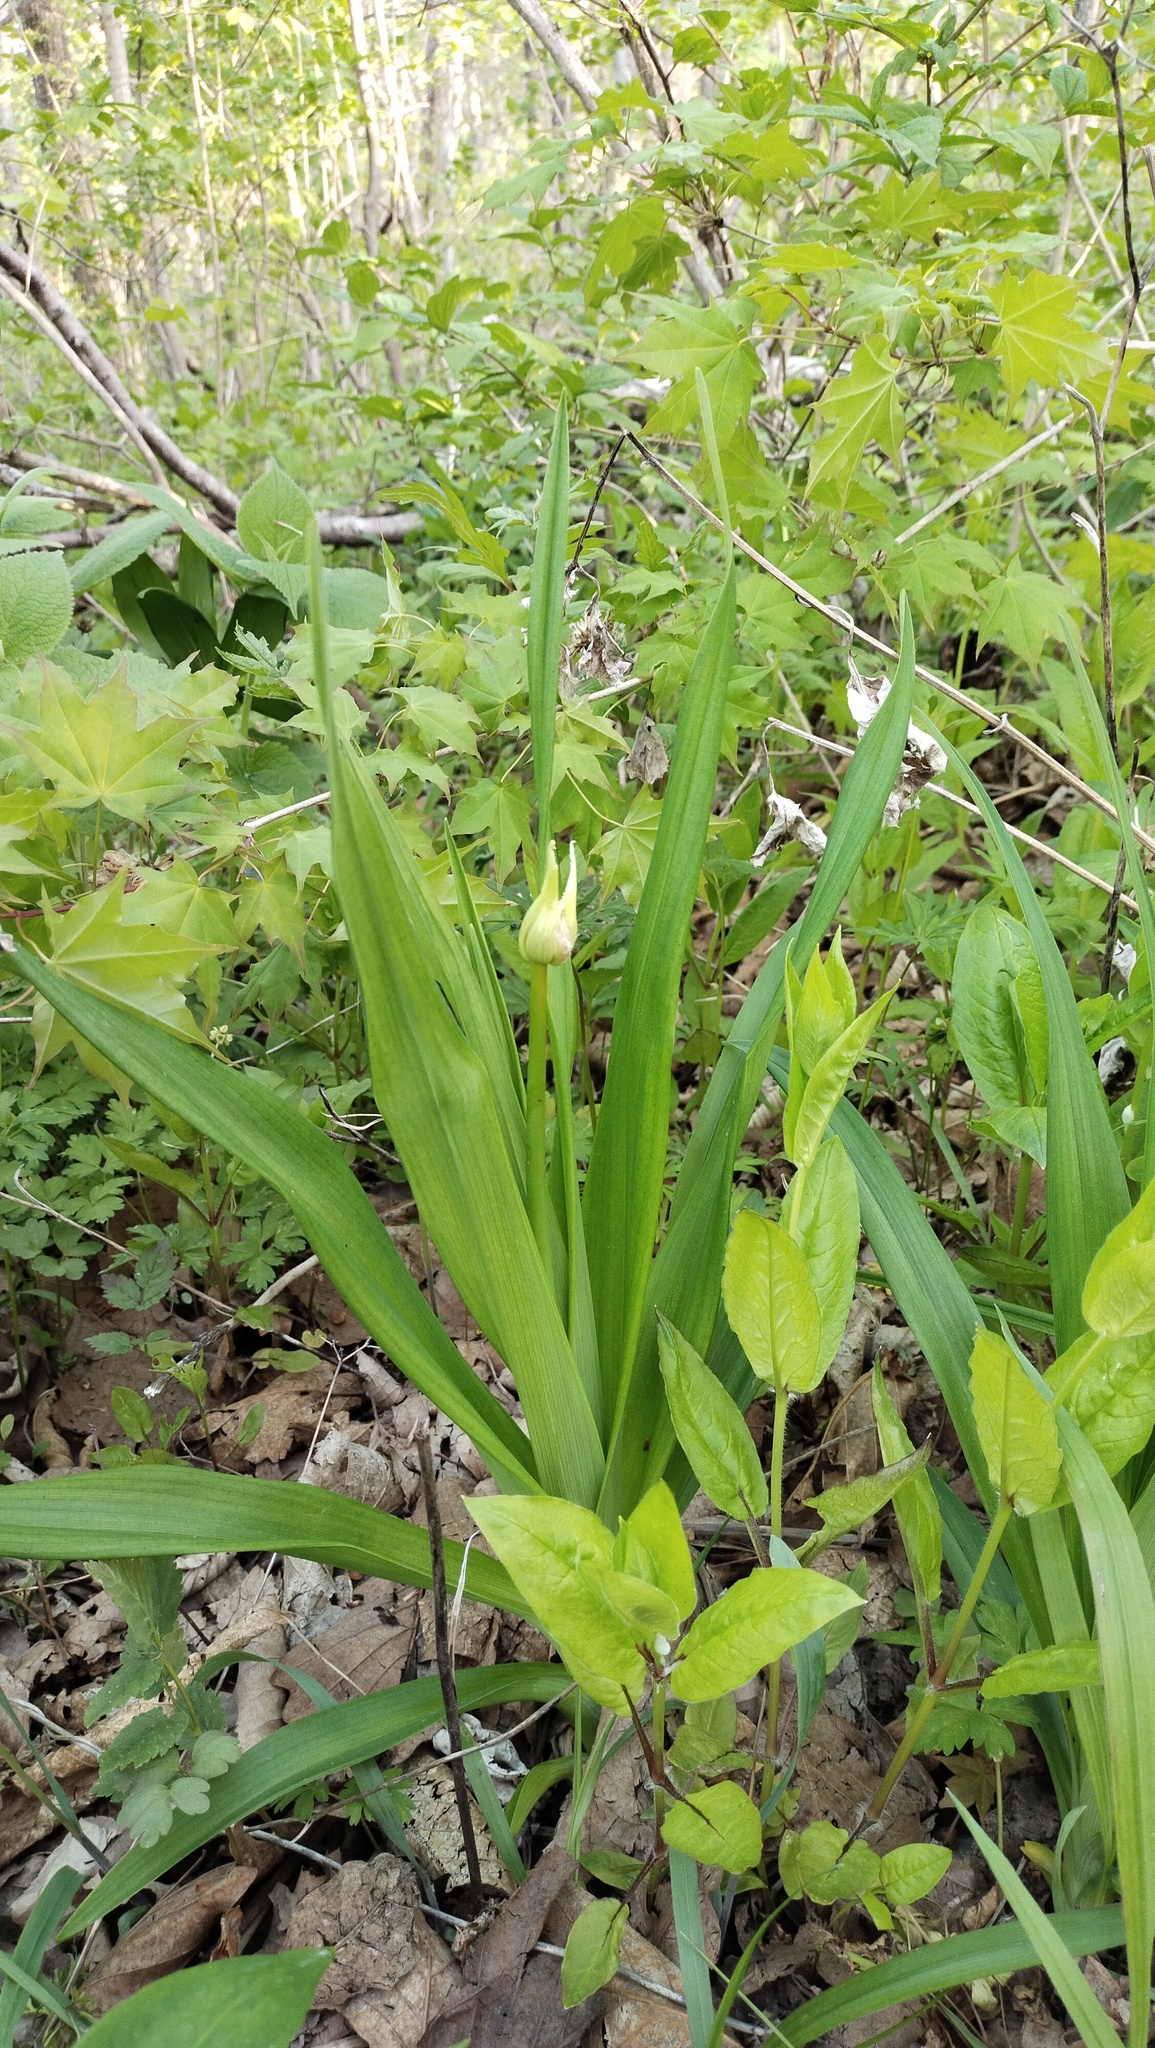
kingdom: Plantae
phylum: Tracheophyta
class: Liliopsida
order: Asparagales
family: Asphodelaceae
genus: Hemerocallis
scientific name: Hemerocallis middendorffii
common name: Amur day-lily
